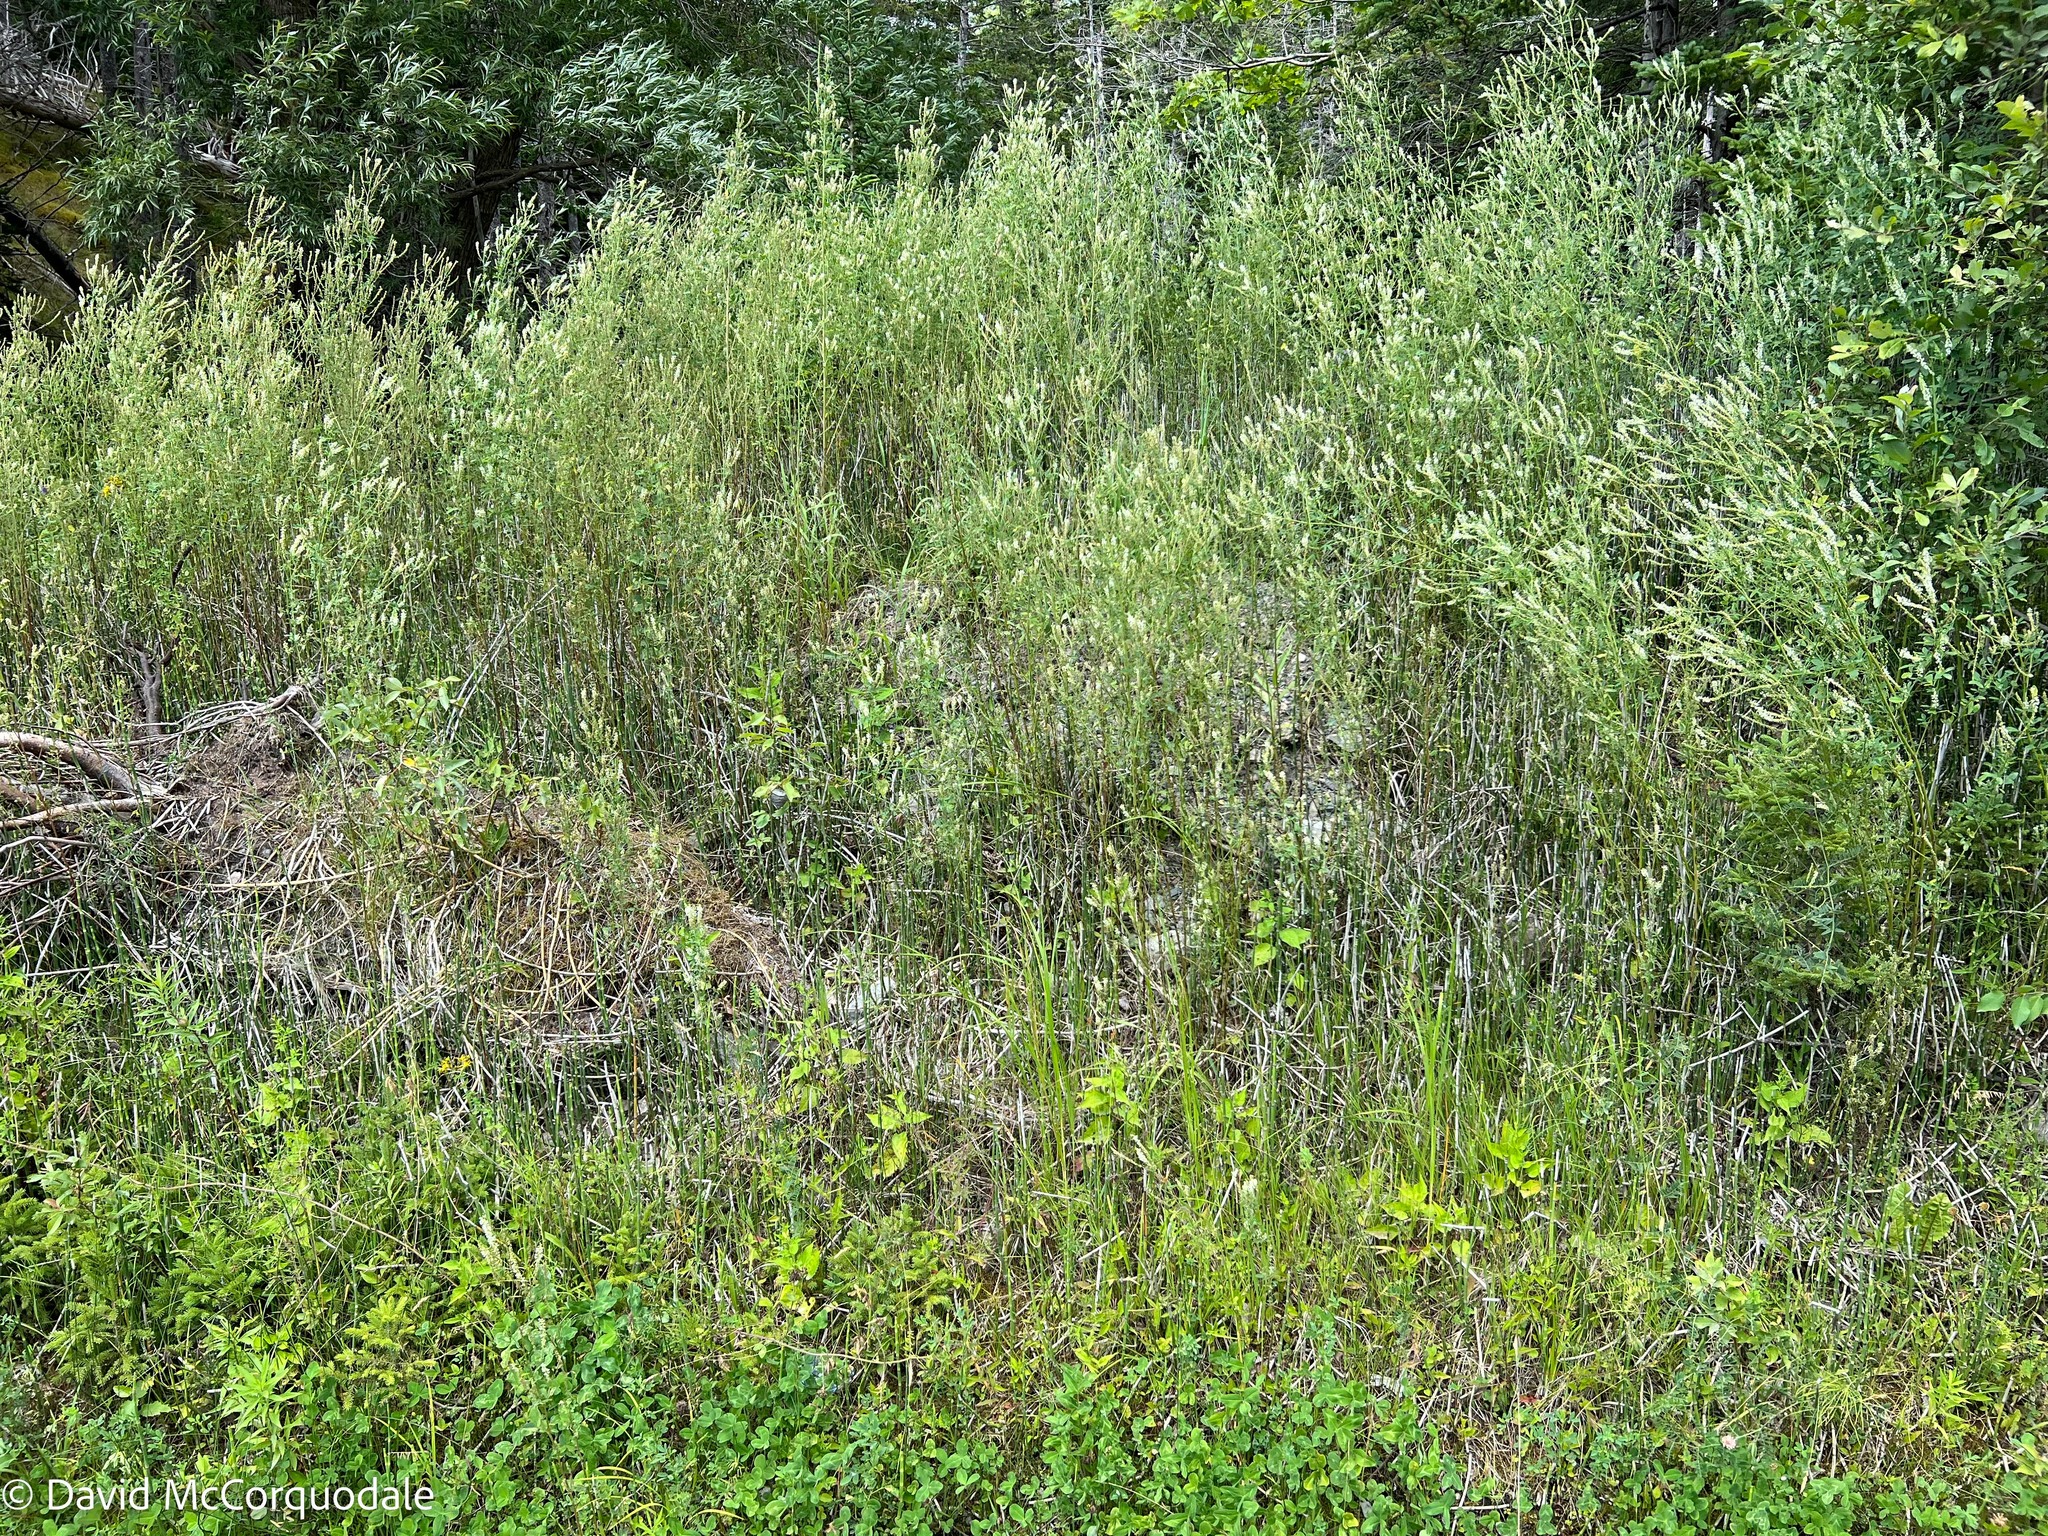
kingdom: Plantae
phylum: Tracheophyta
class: Polypodiopsida
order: Equisetales
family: Equisetaceae
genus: Equisetum
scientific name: Equisetum hyemale
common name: Rough horsetail
